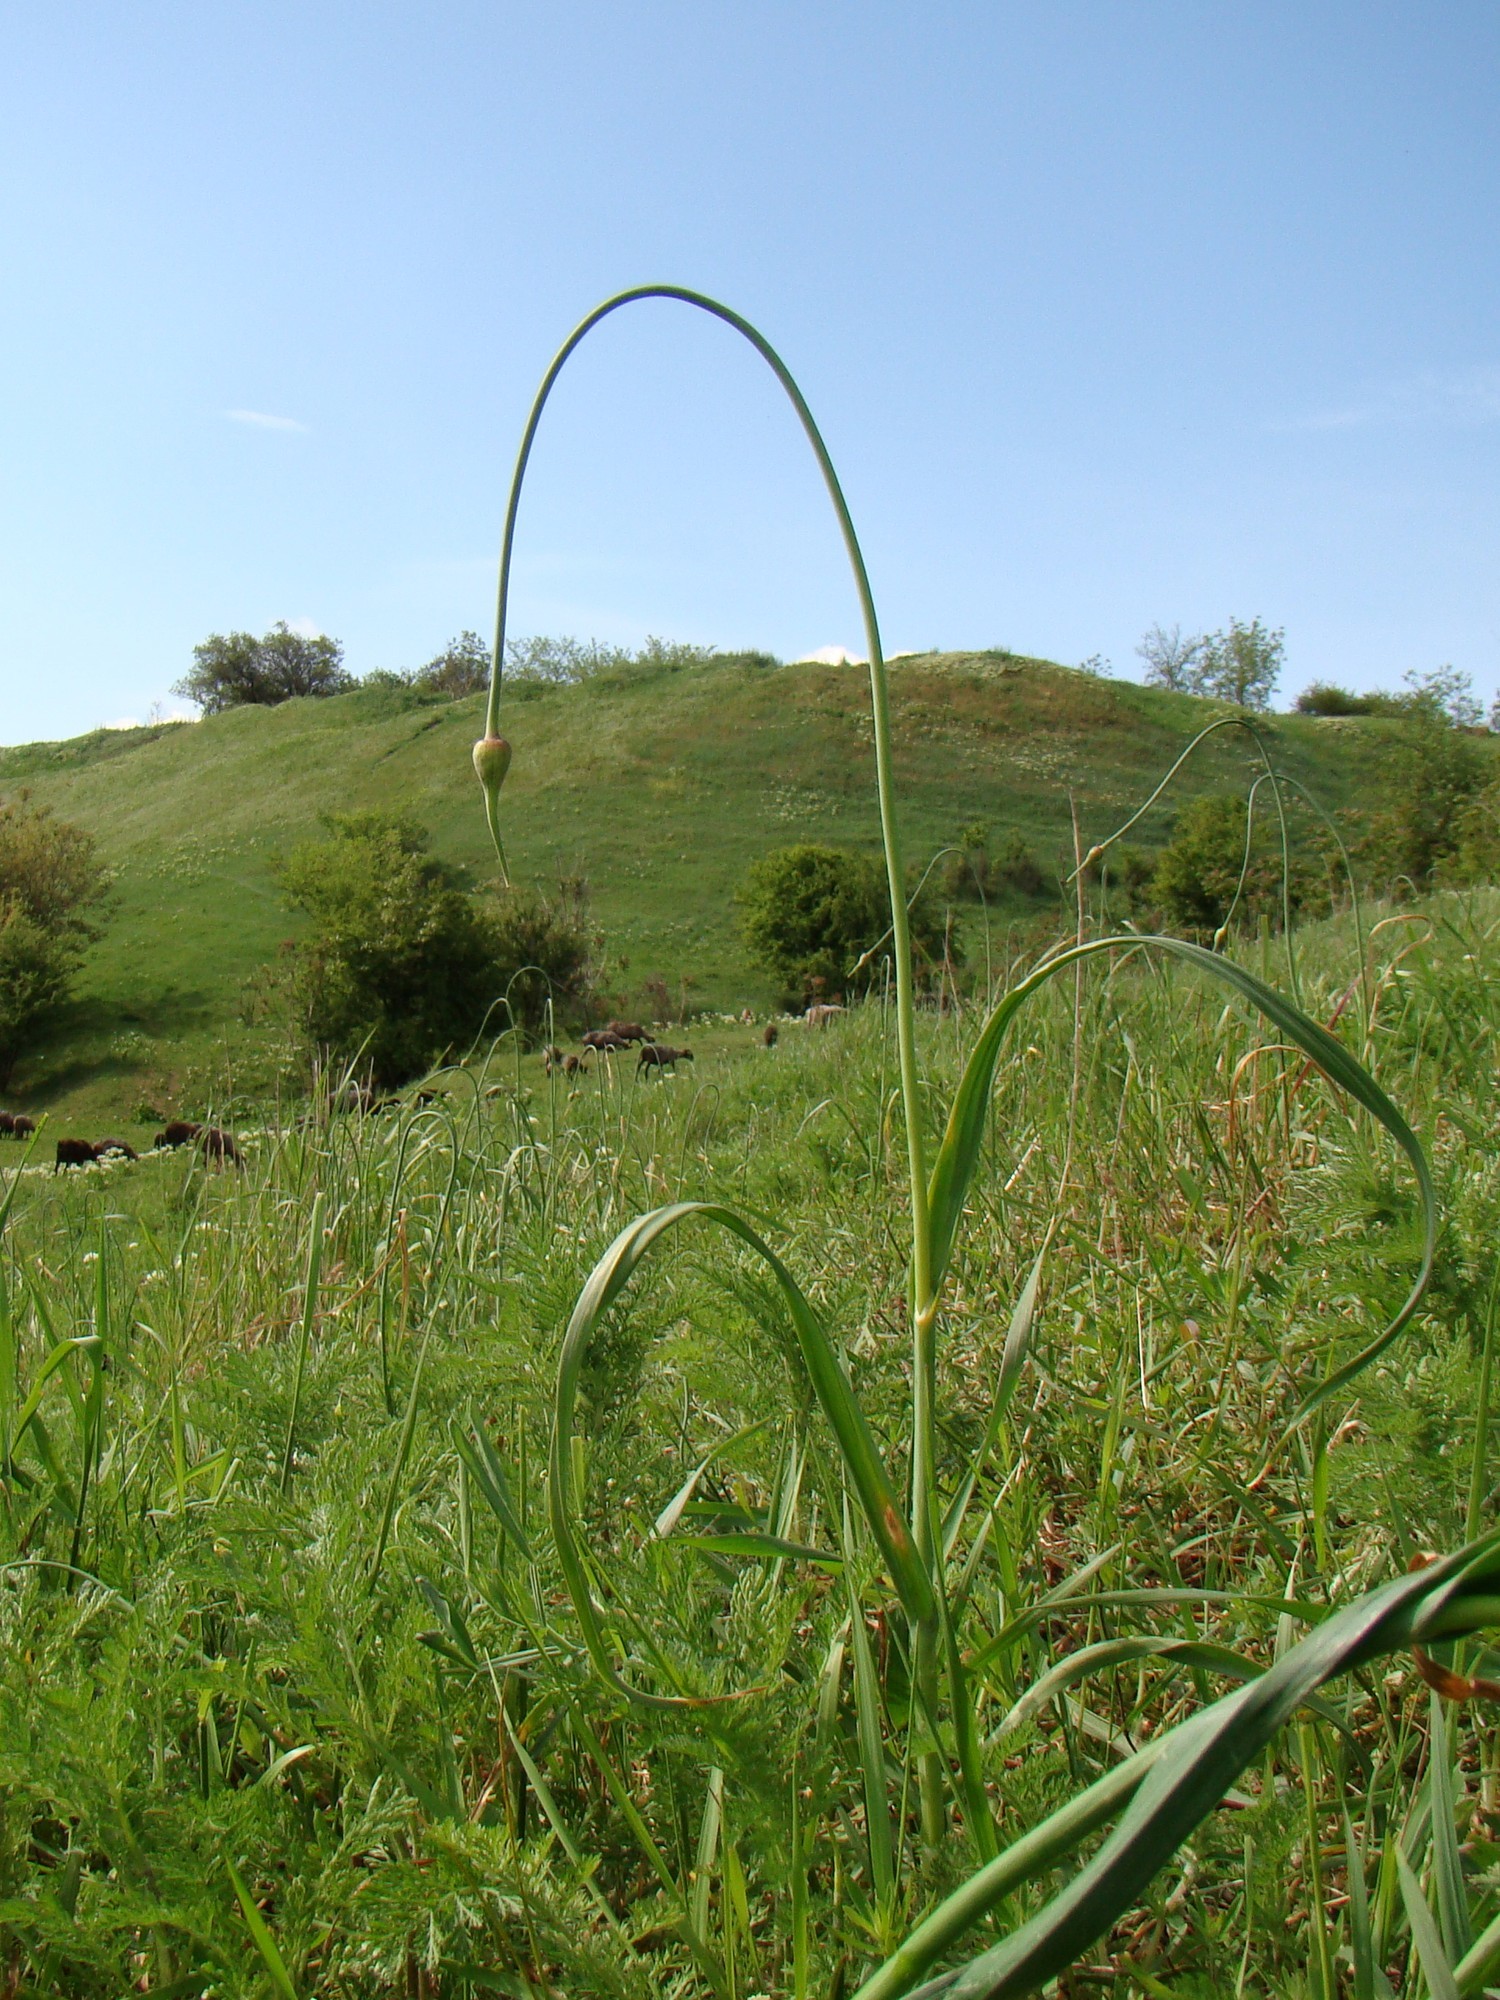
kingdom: Plantae
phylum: Tracheophyta
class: Liliopsida
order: Asparagales
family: Amaryllidaceae
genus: Allium
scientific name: Allium rotundum
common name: Sand leek
